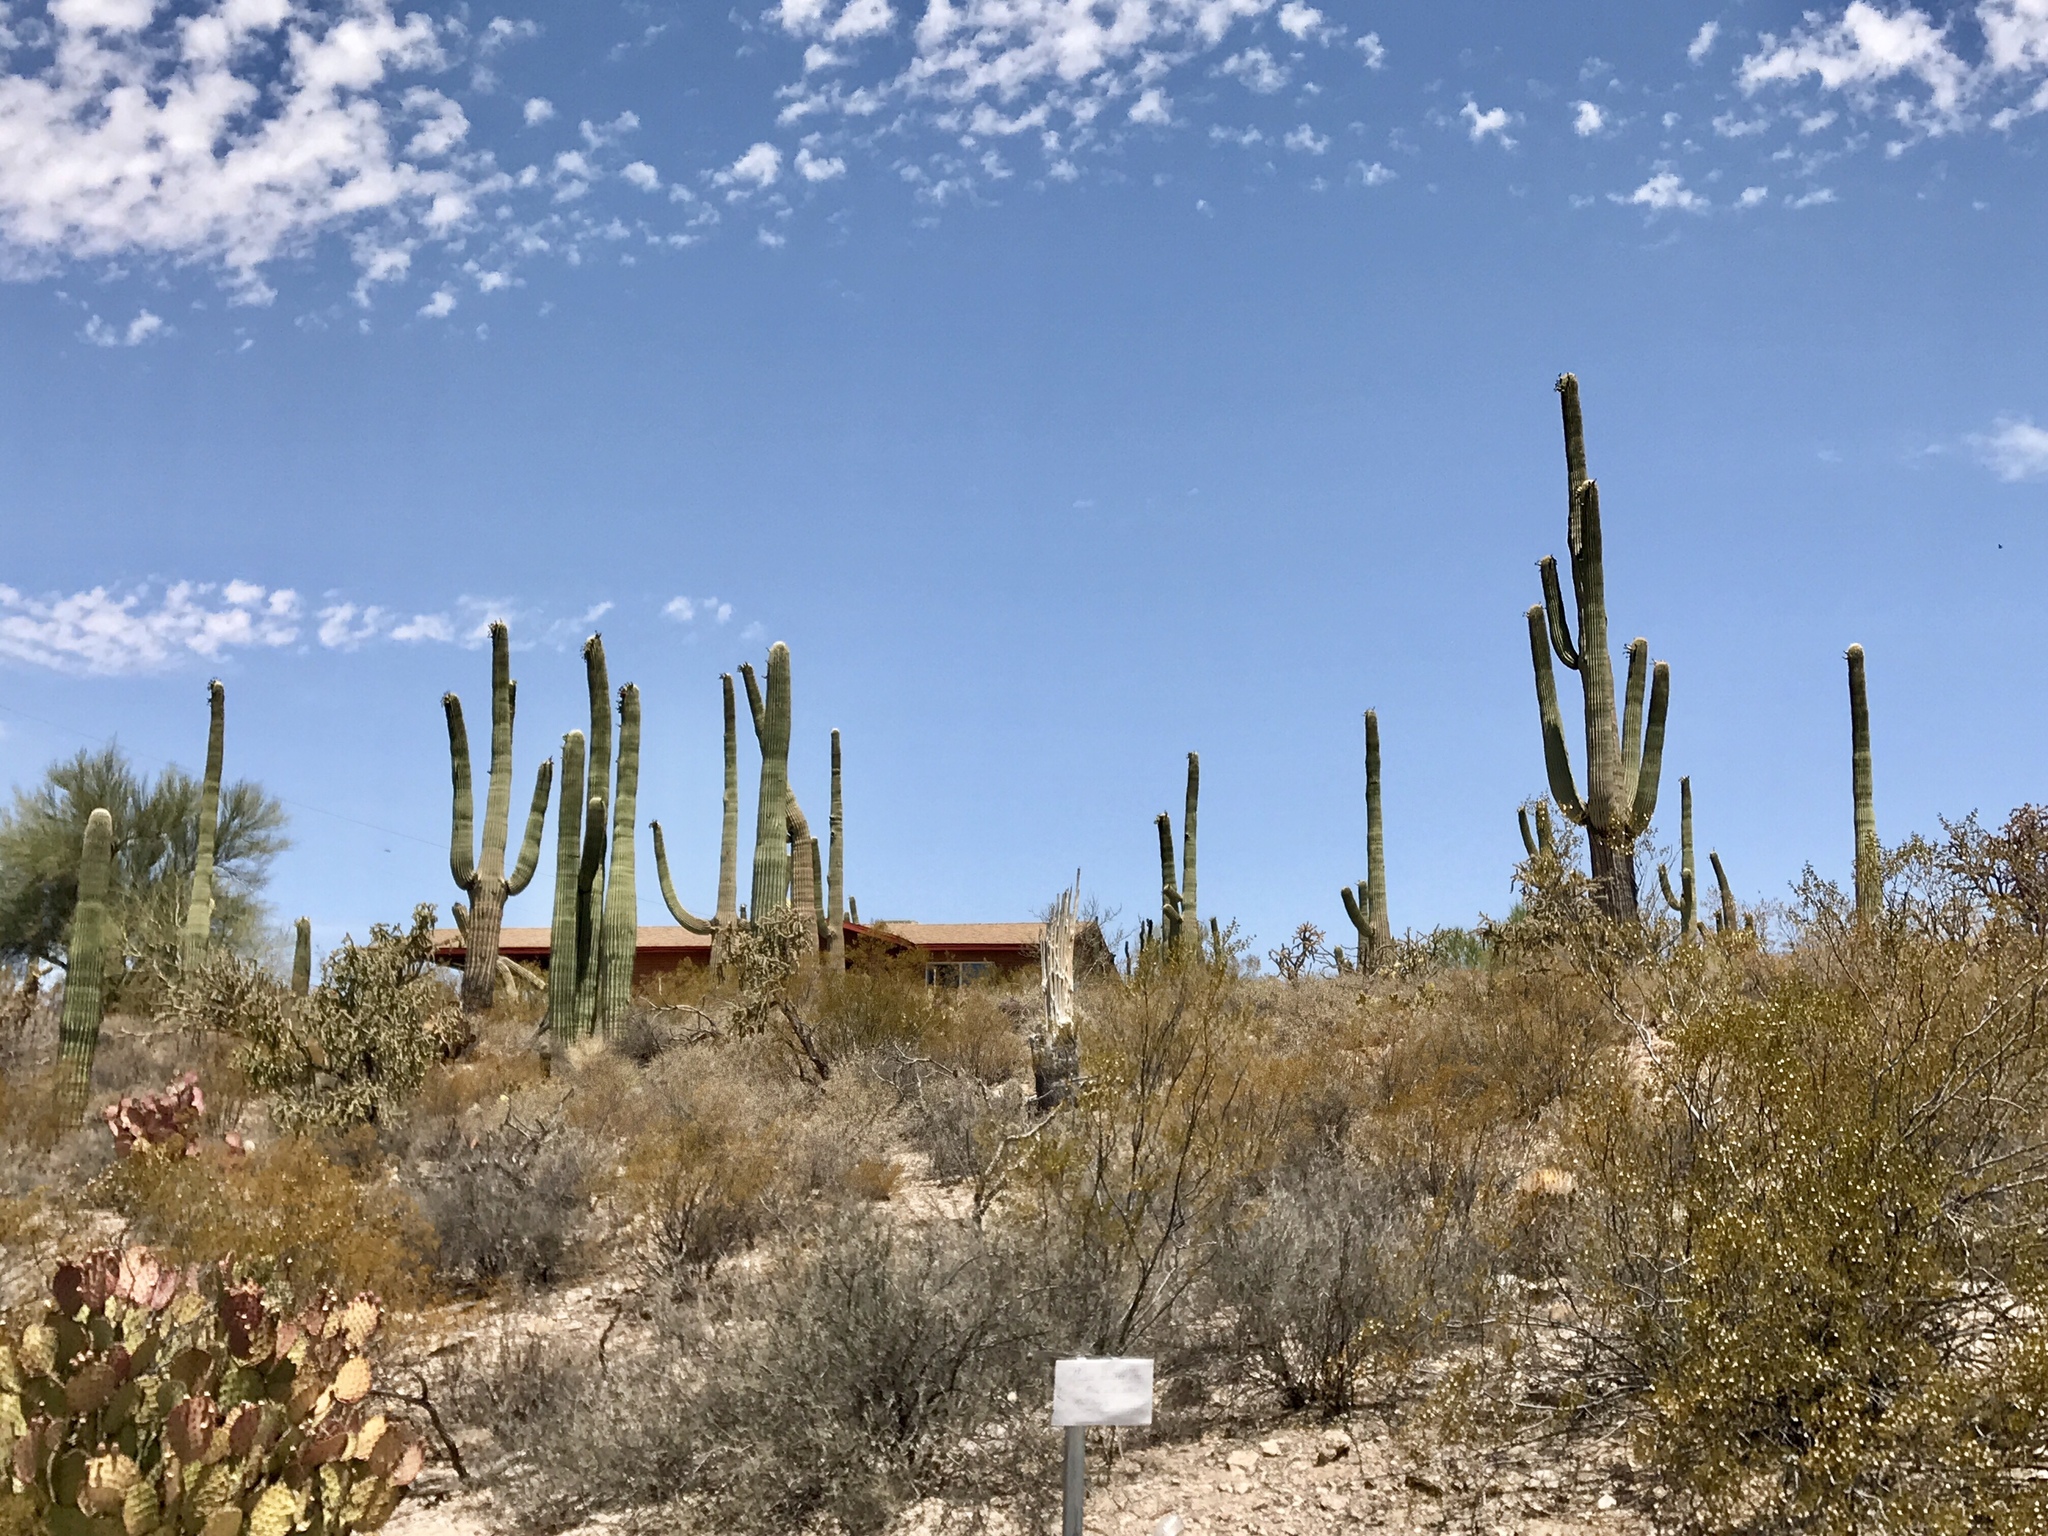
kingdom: Plantae
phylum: Tracheophyta
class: Magnoliopsida
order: Caryophyllales
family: Cactaceae
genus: Carnegiea
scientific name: Carnegiea gigantea
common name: Saguaro
